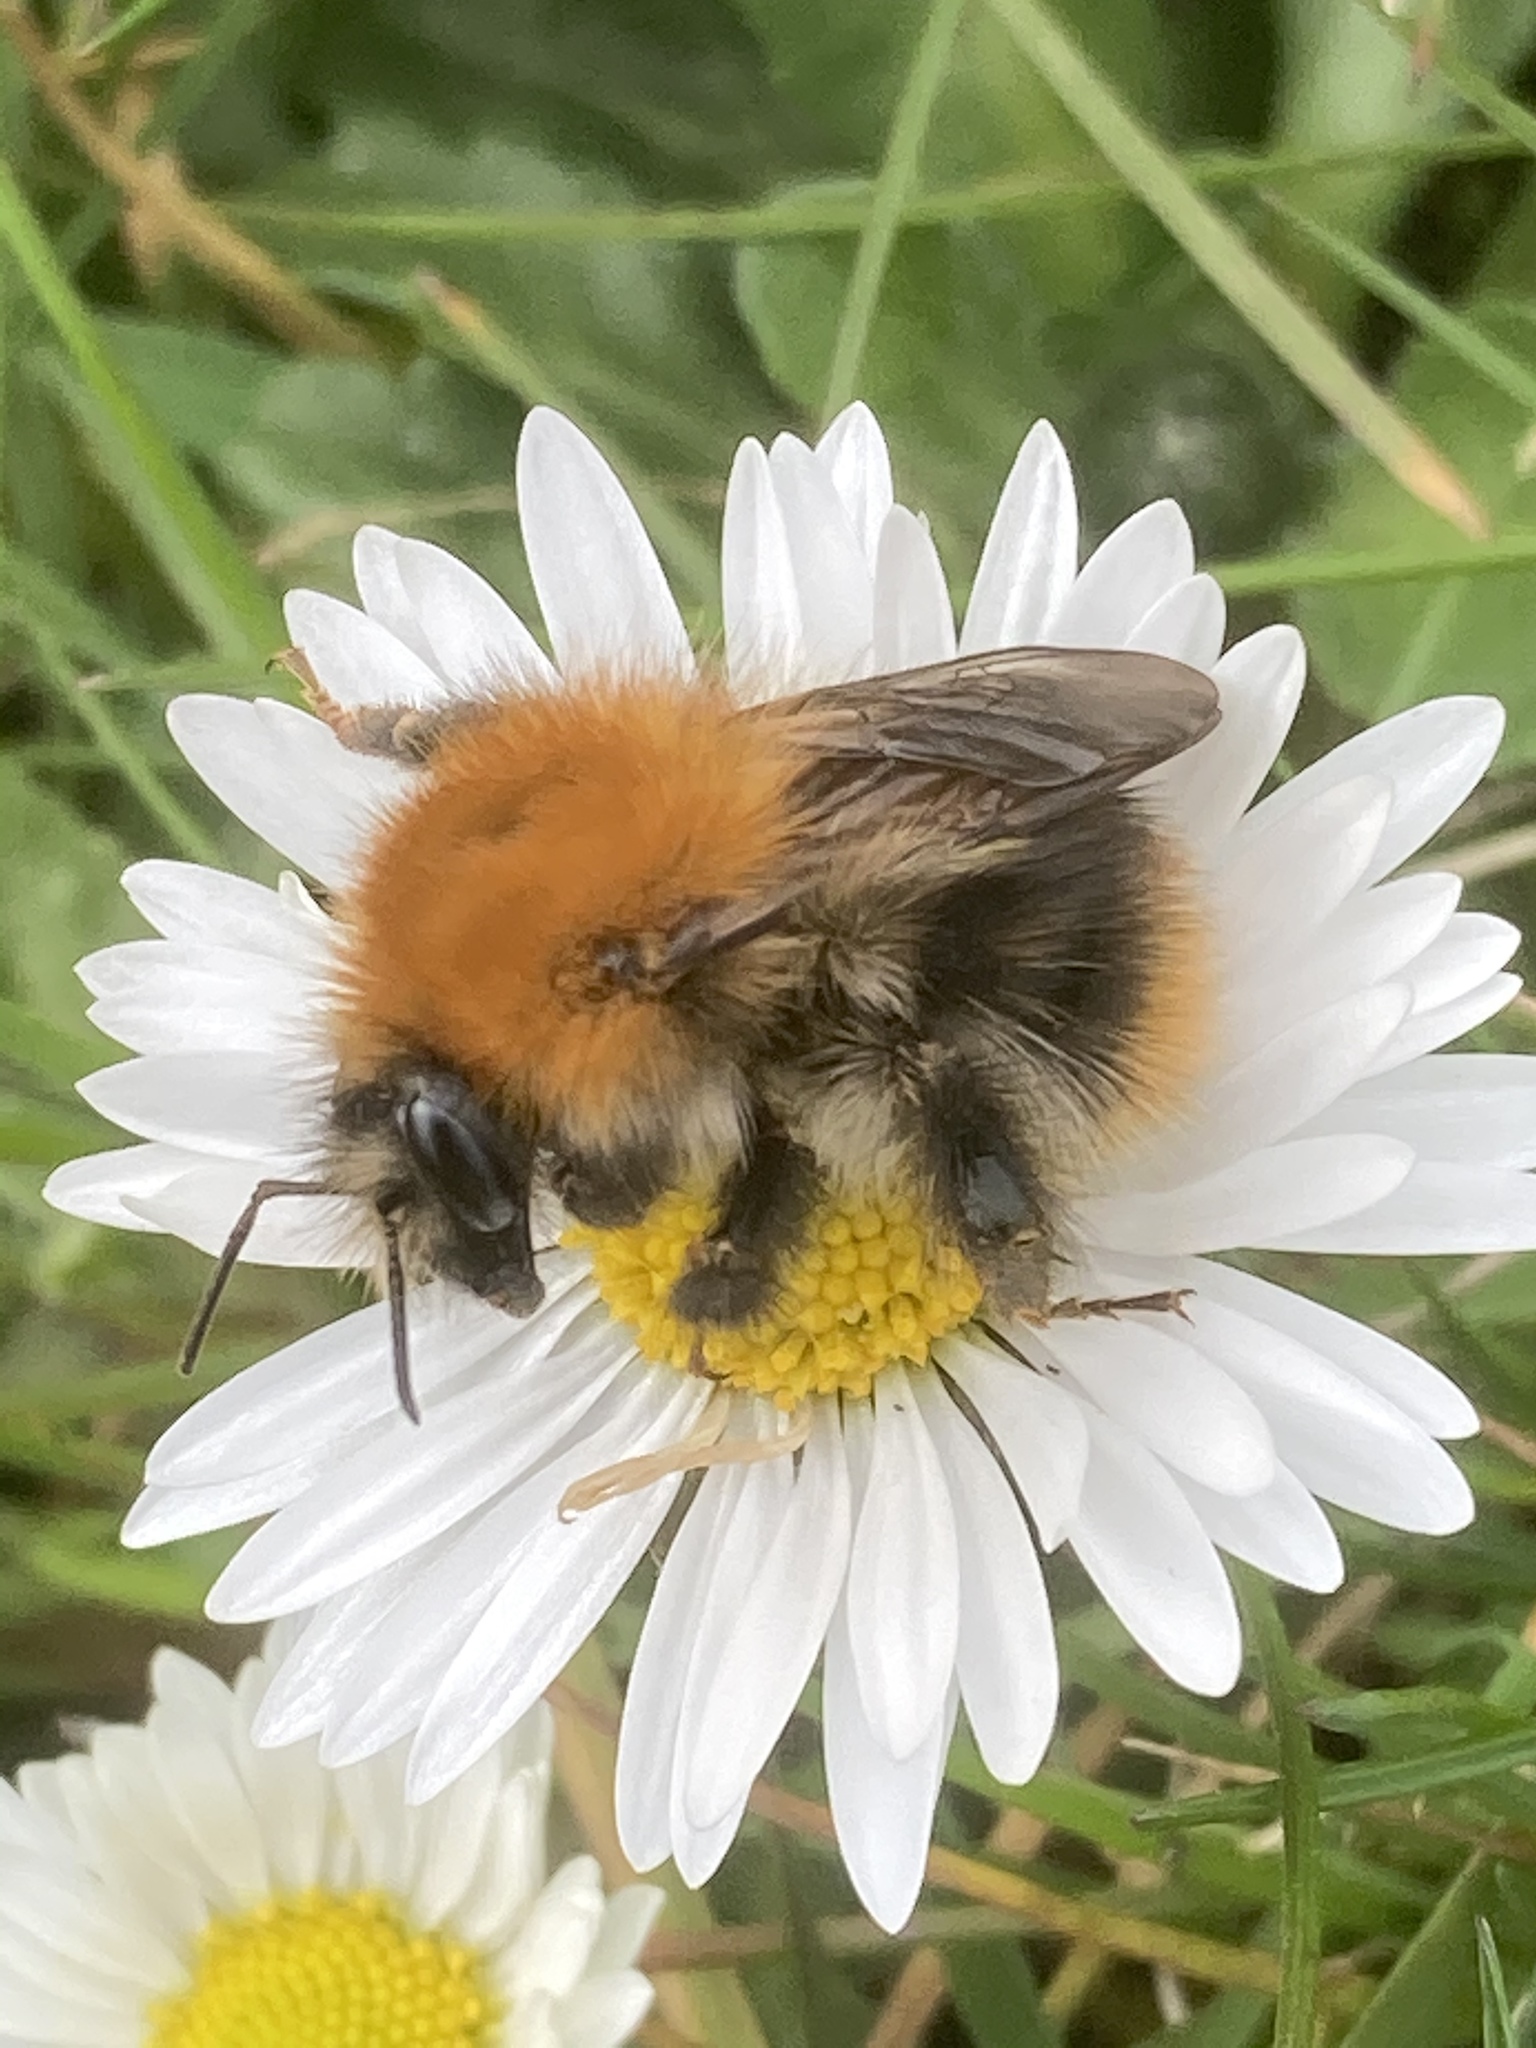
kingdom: Animalia
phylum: Arthropoda
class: Insecta
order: Hymenoptera
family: Apidae
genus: Bombus
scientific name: Bombus pascuorum
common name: Common carder bee
